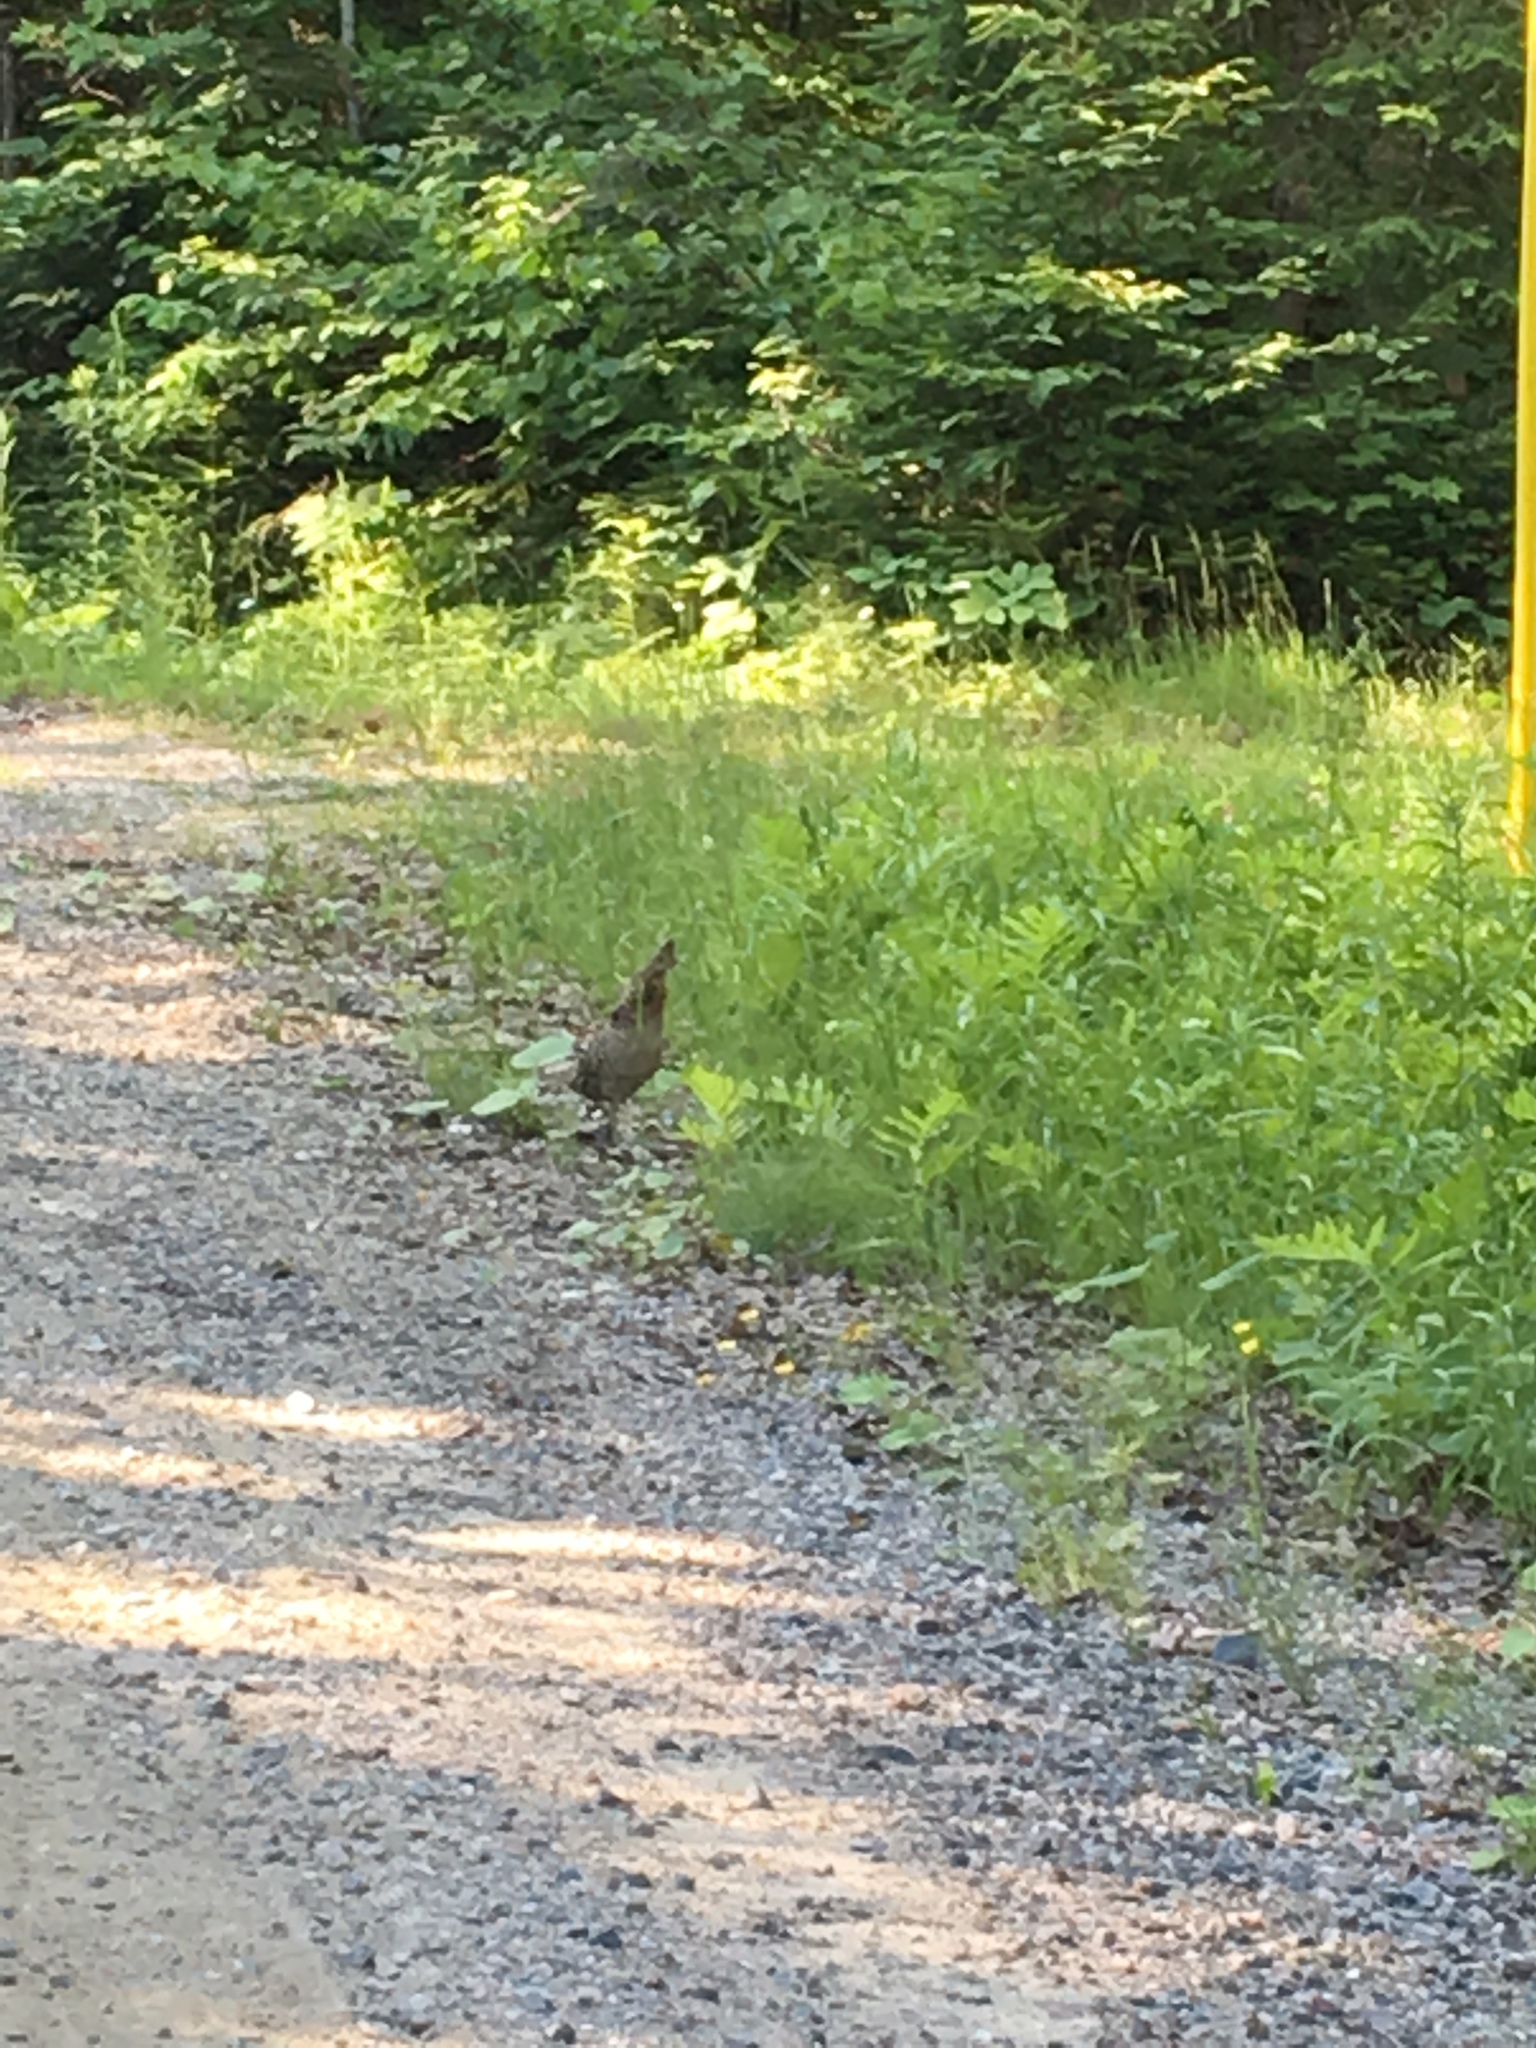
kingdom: Animalia
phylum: Chordata
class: Aves
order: Galliformes
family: Phasianidae
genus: Bonasa
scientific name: Bonasa umbellus
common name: Ruffed grouse
